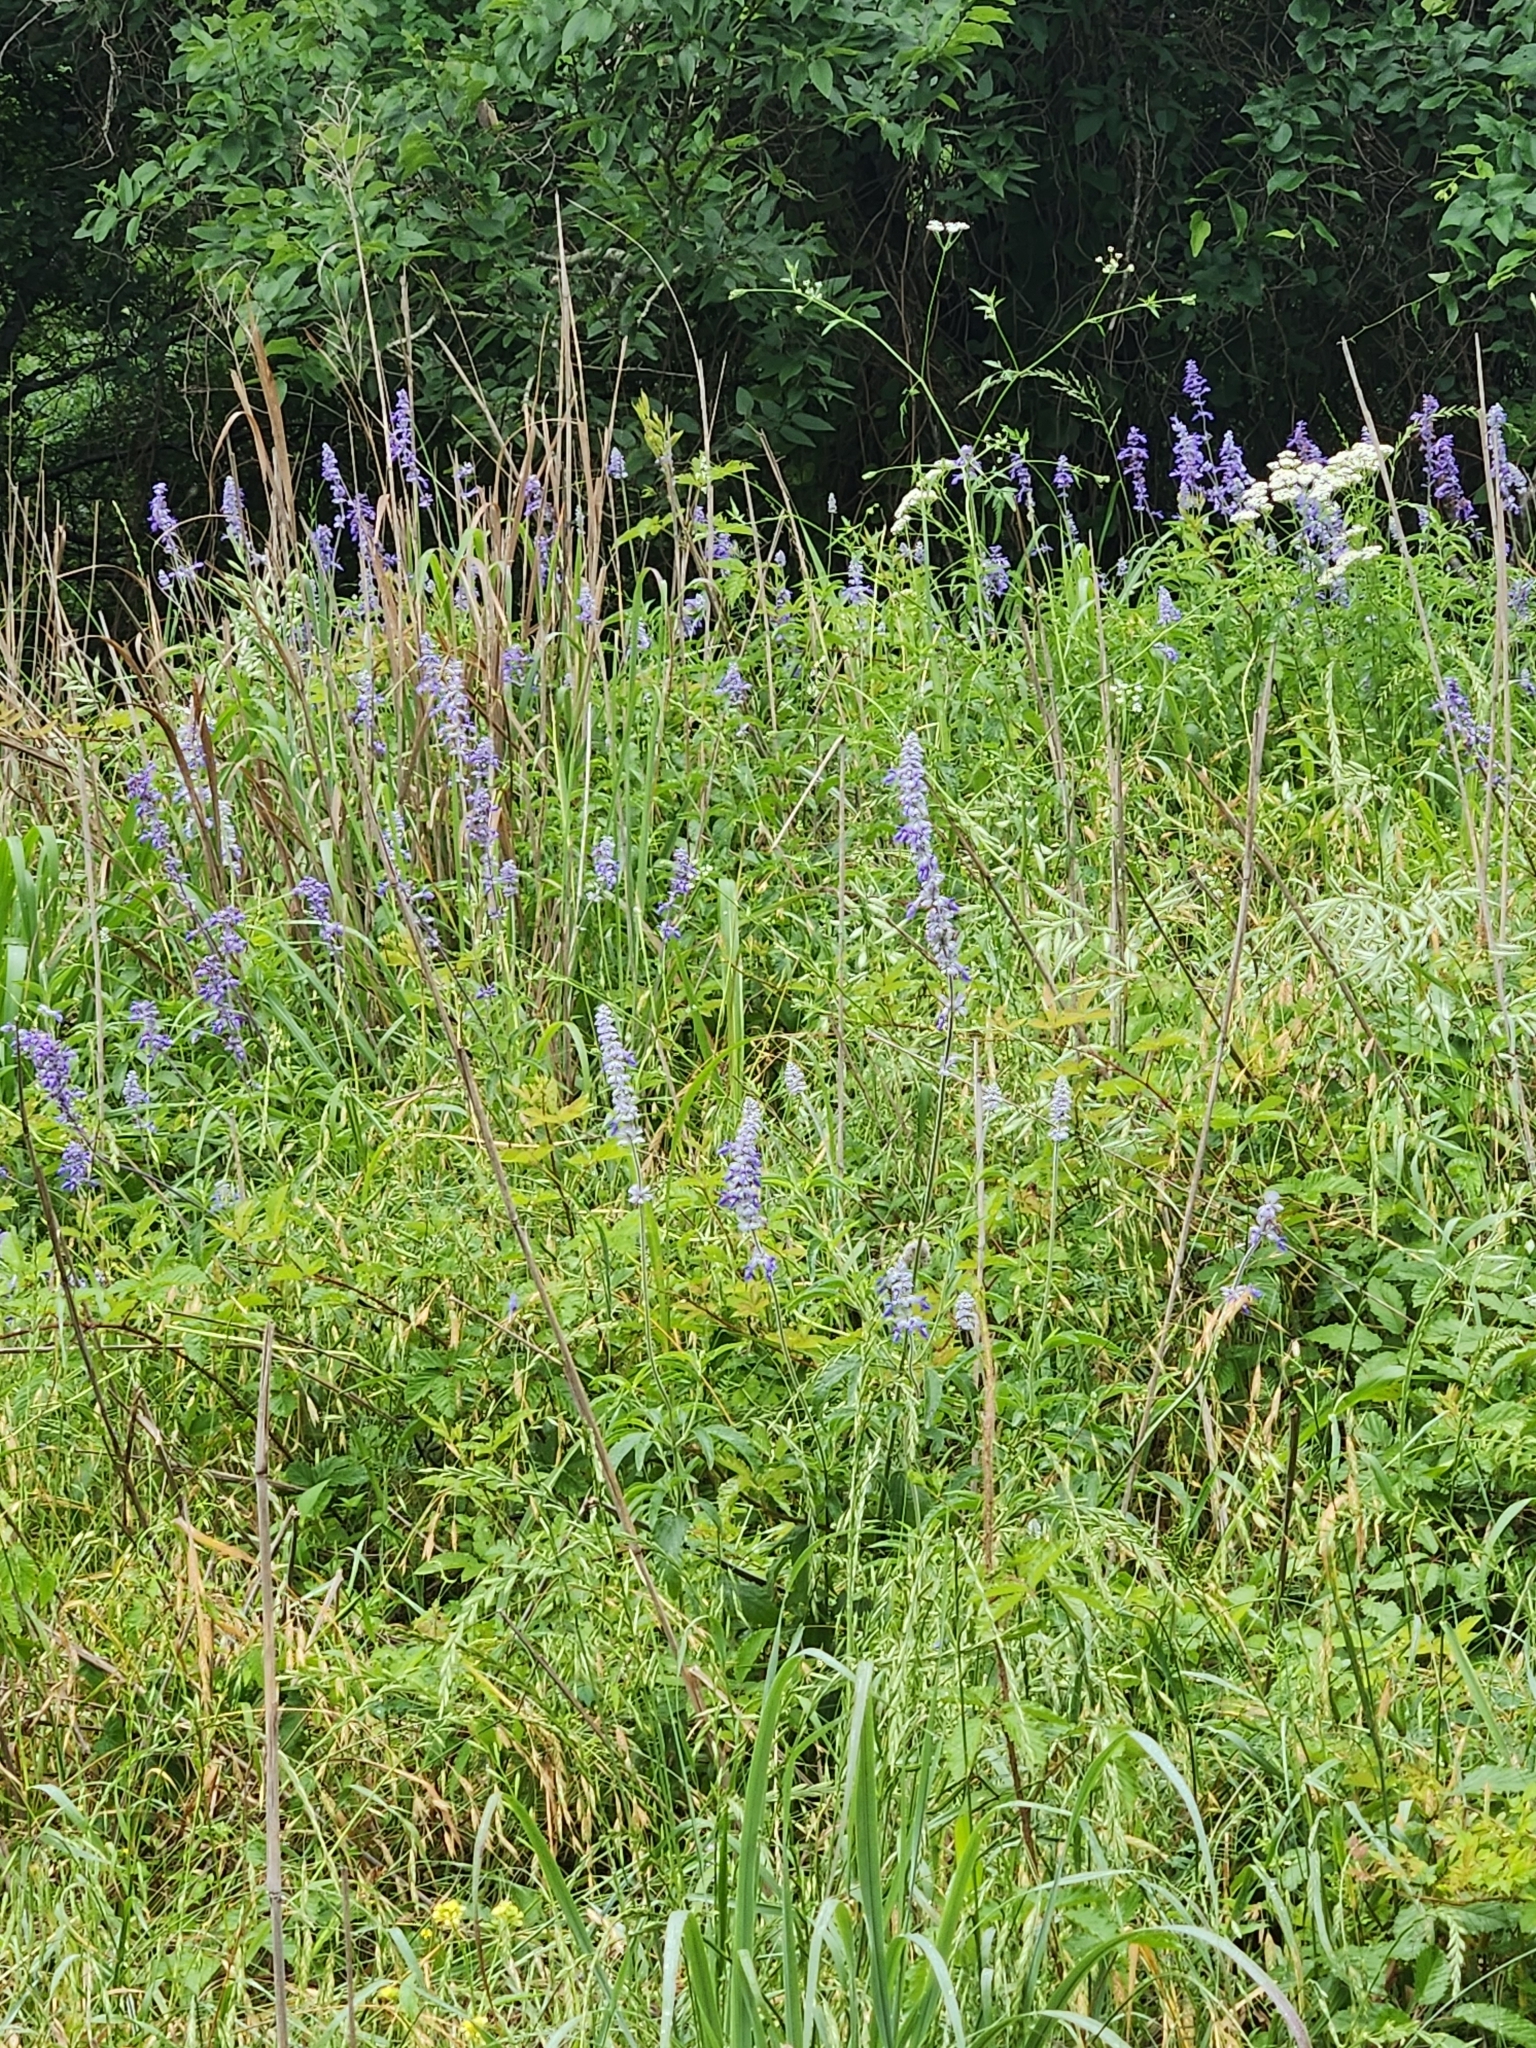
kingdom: Plantae
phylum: Tracheophyta
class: Magnoliopsida
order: Lamiales
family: Lamiaceae
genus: Salvia
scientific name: Salvia farinacea
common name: Mealy sage
